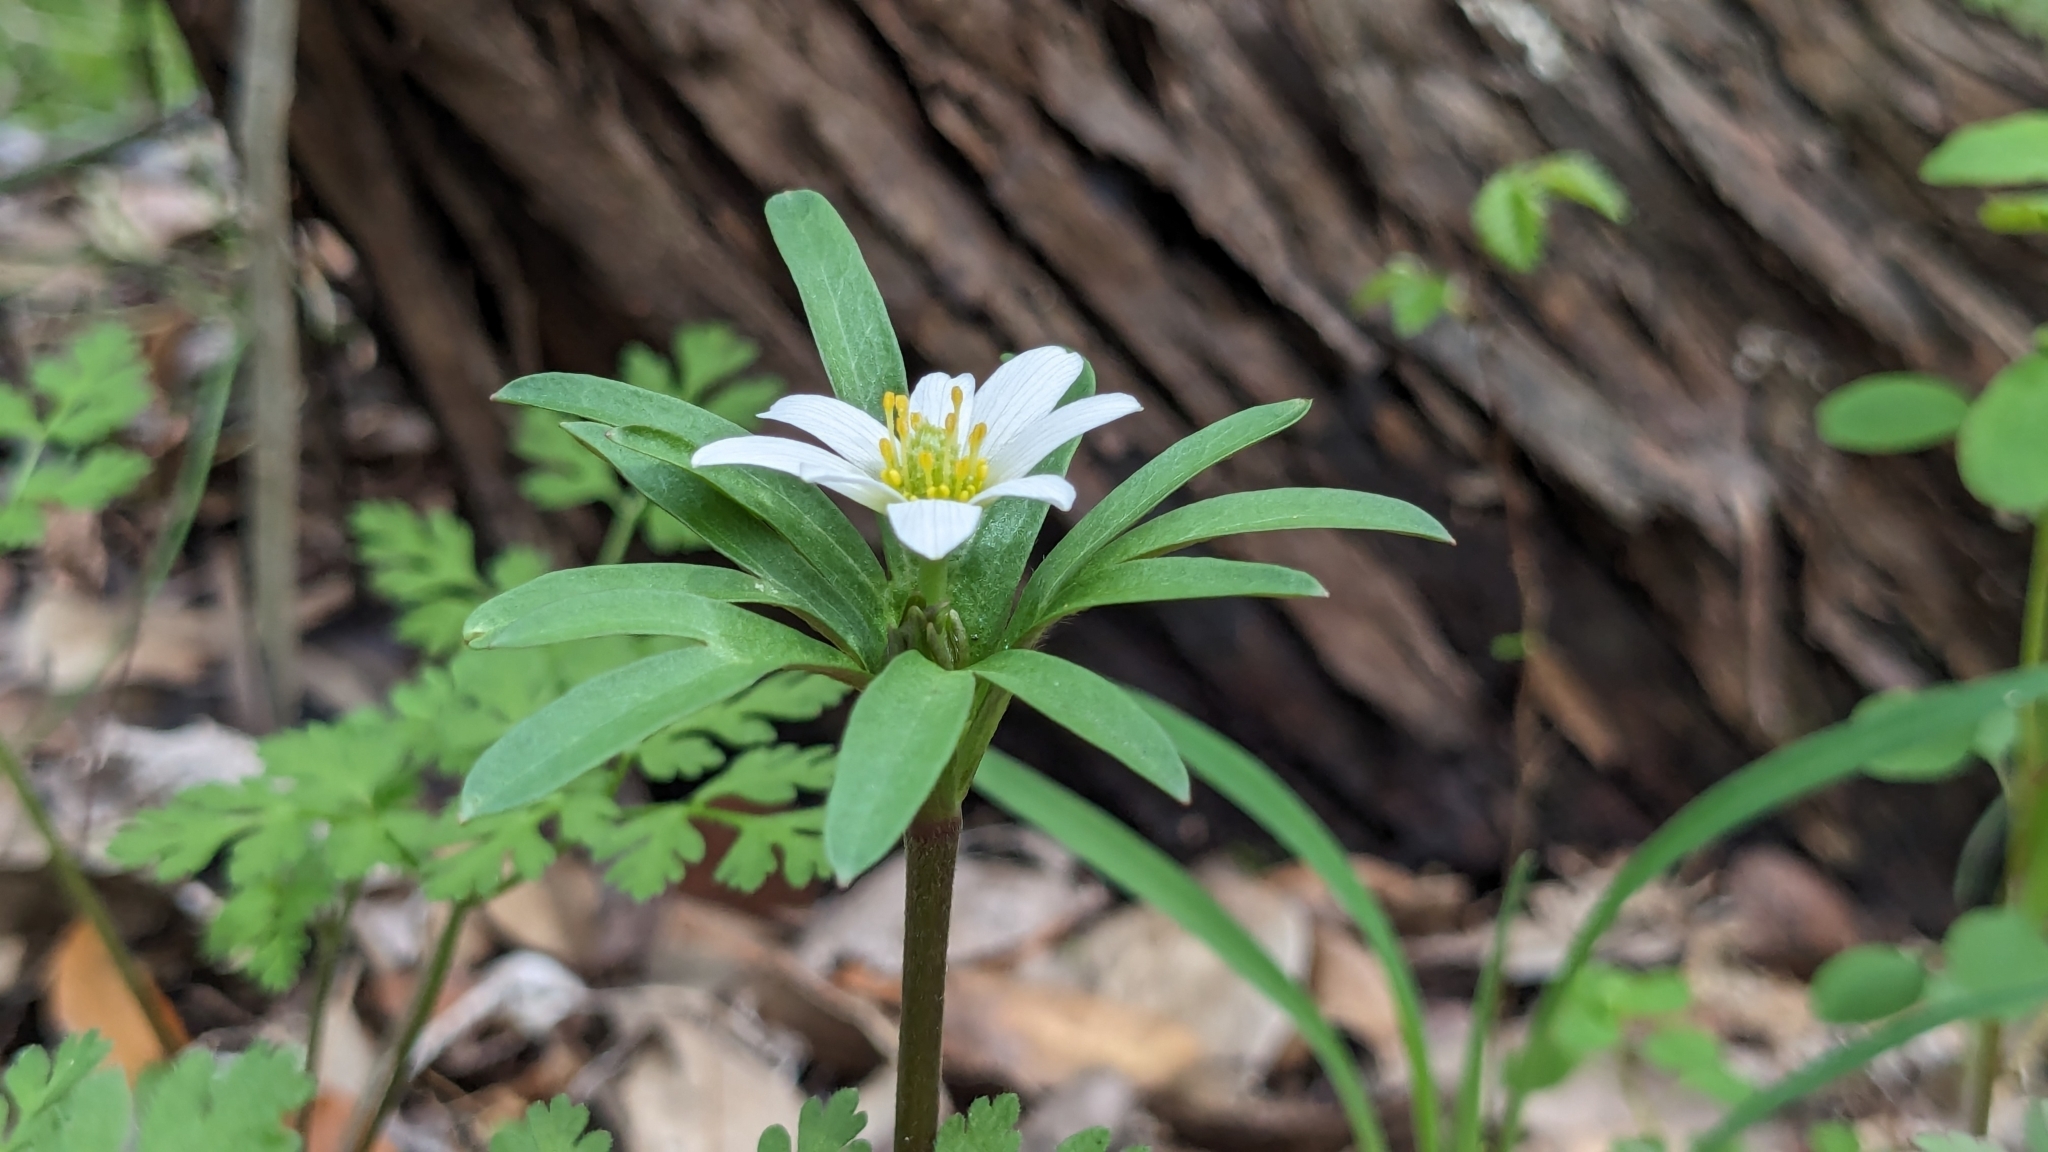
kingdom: Plantae
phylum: Tracheophyta
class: Magnoliopsida
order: Ranunculales
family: Ranunculaceae
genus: Anemone
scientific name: Anemone edwardsiana
